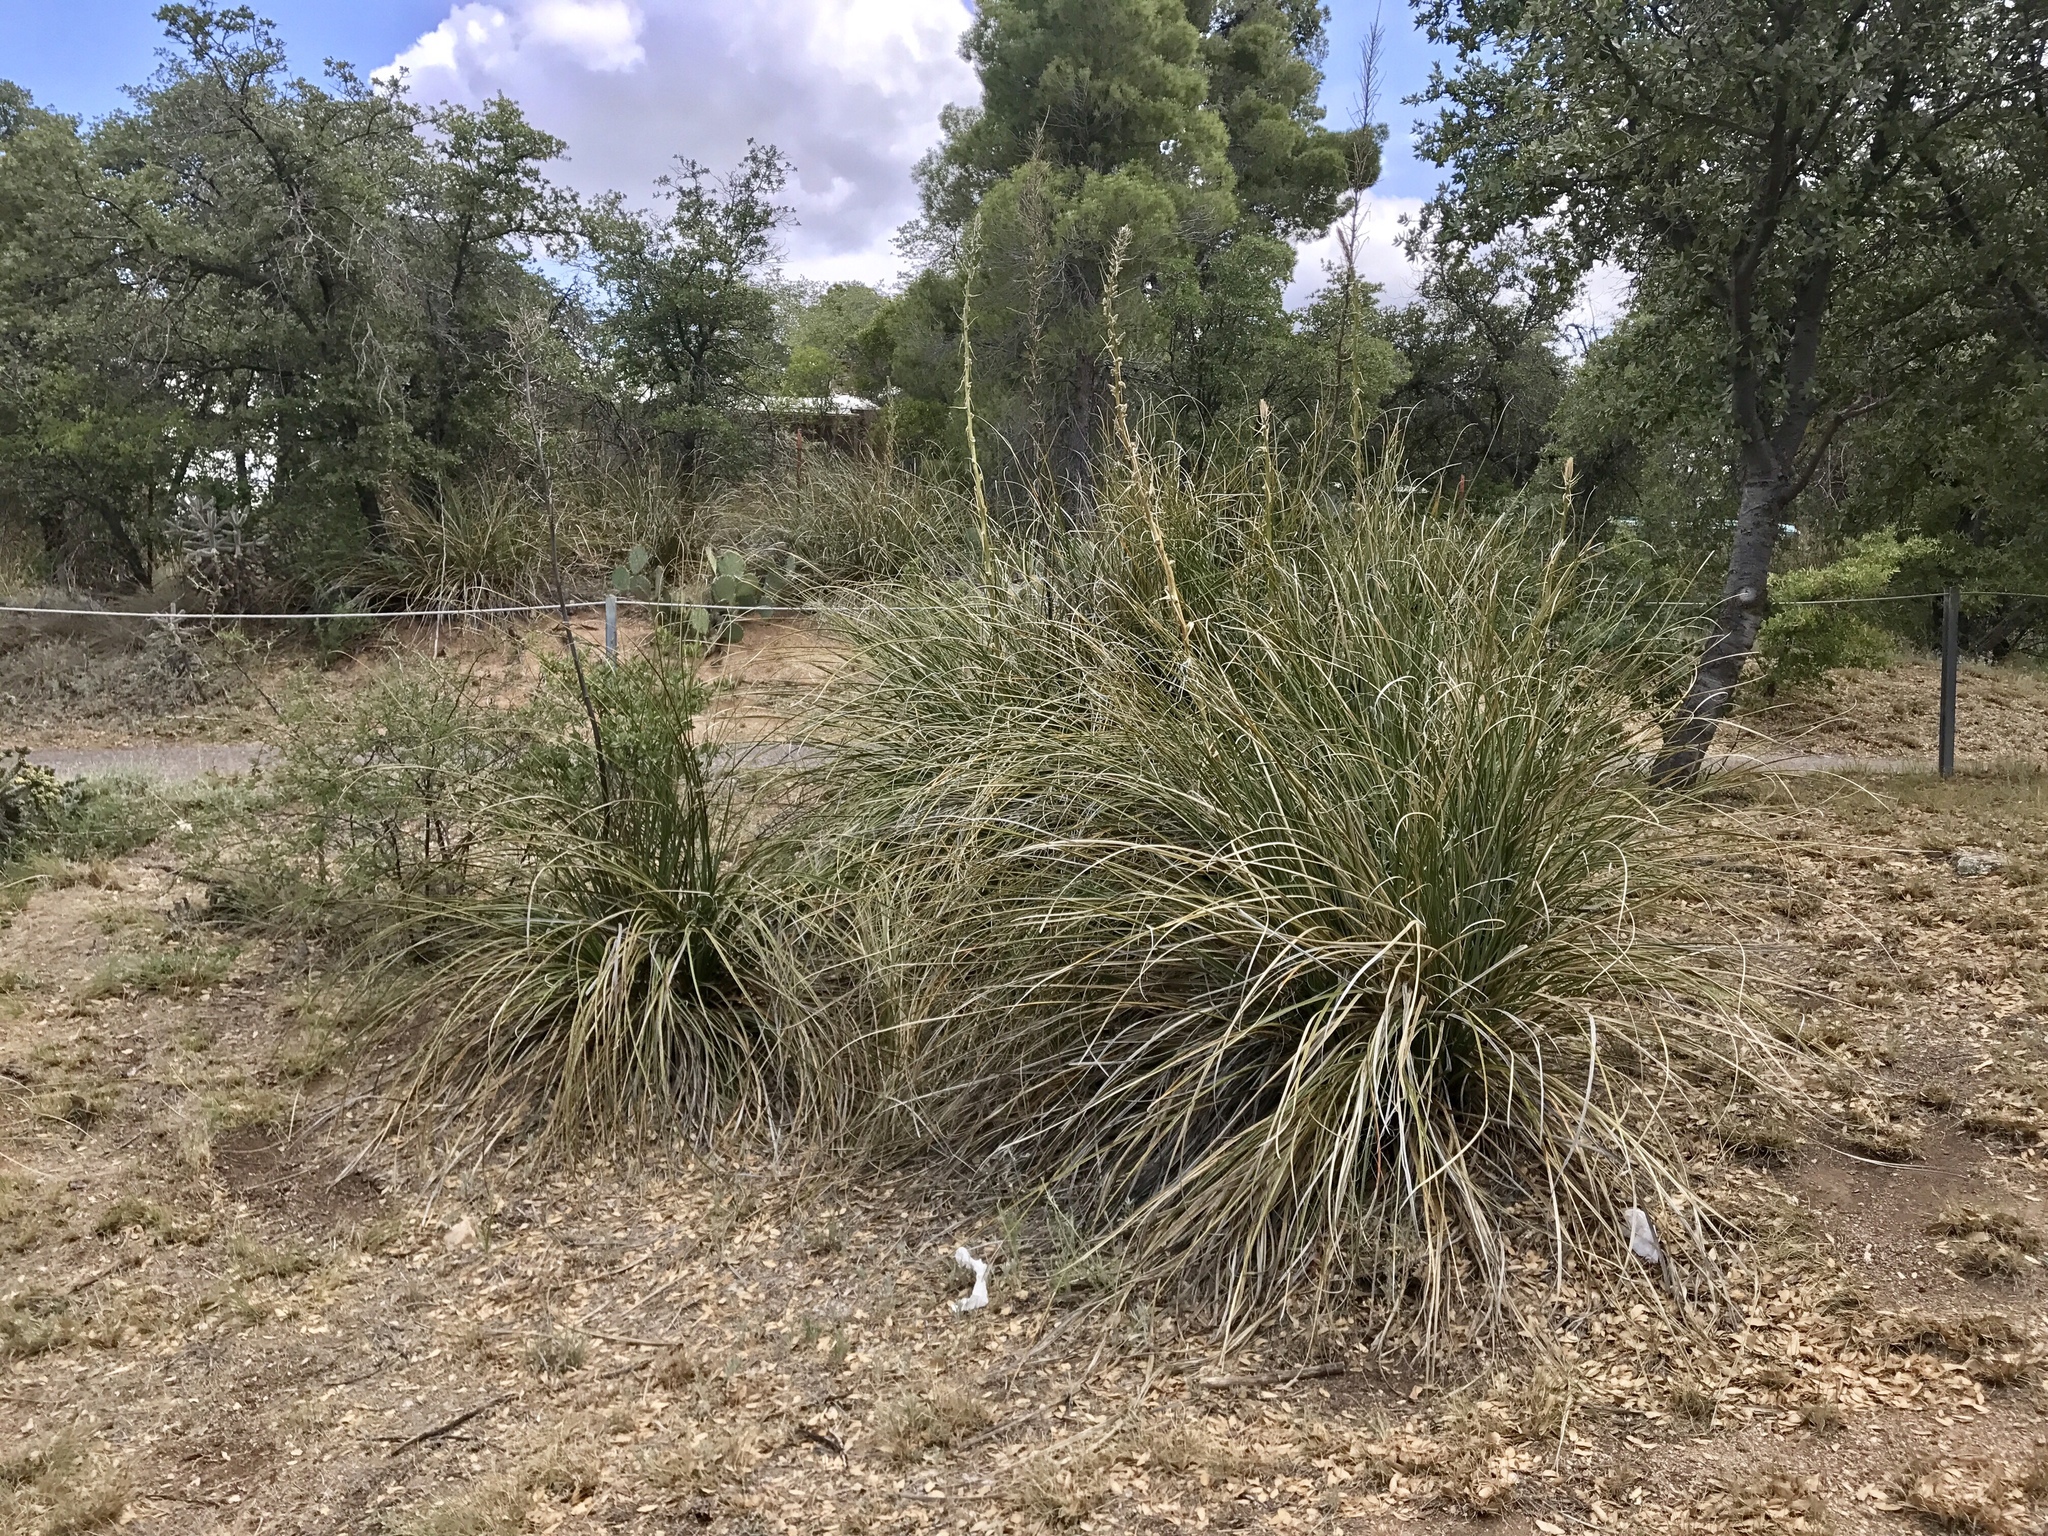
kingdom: Plantae
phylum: Tracheophyta
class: Liliopsida
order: Asparagales
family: Asparagaceae
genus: Nolina
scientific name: Nolina microcarpa
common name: Bear-grass
